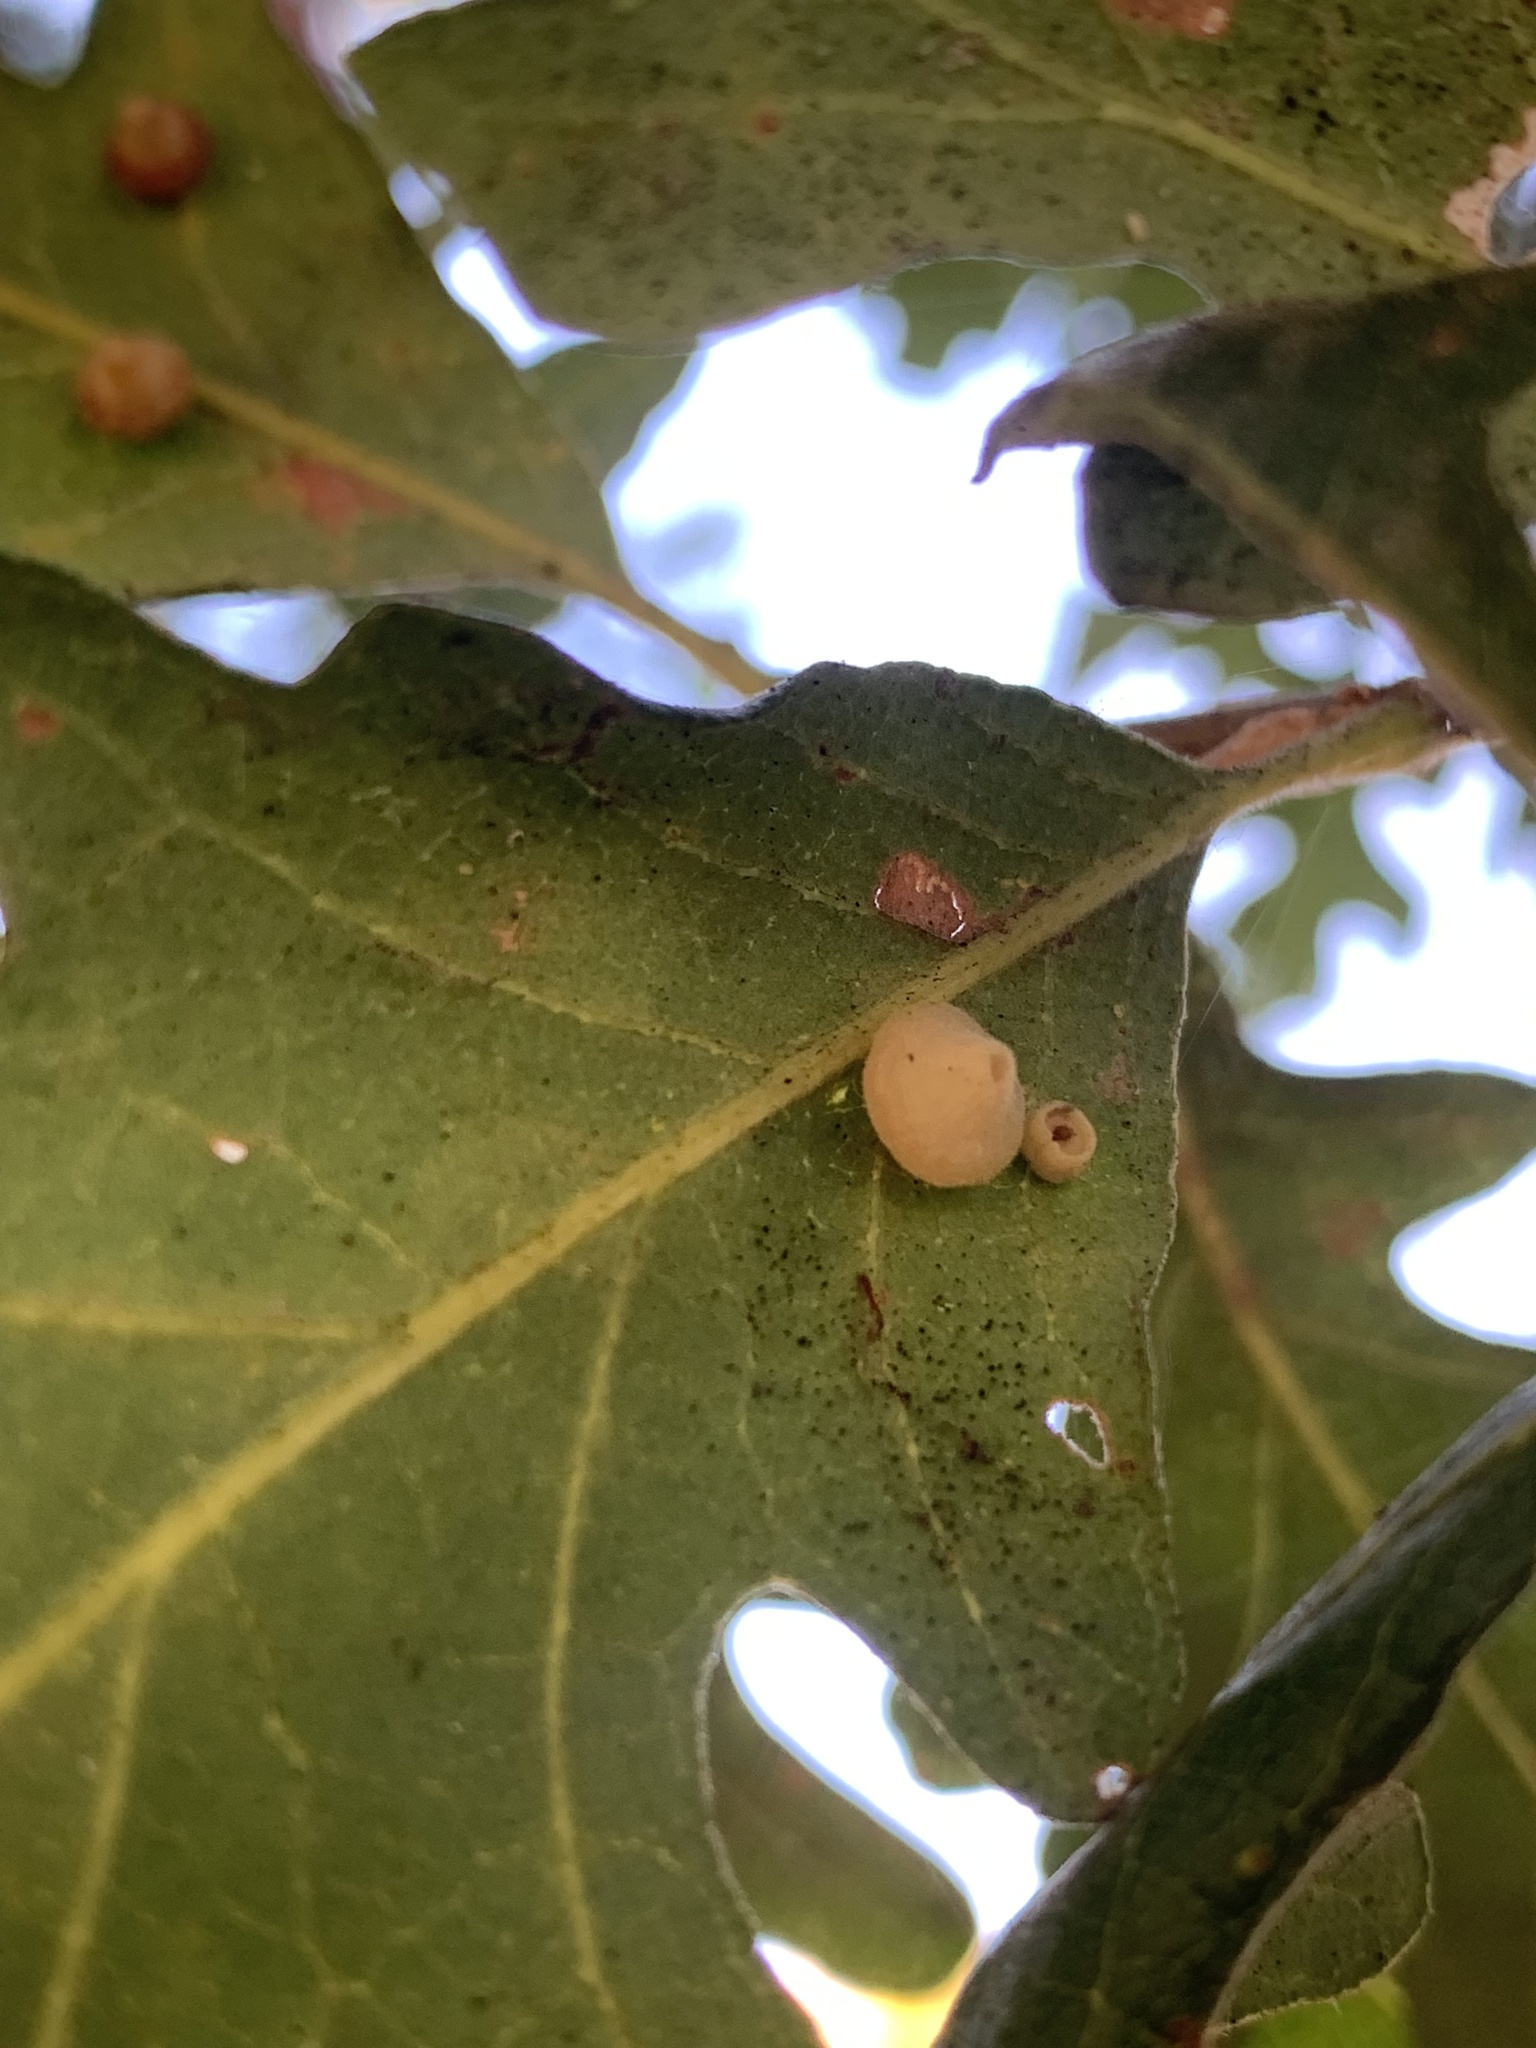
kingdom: Animalia
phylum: Arthropoda
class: Insecta
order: Hymenoptera
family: Cynipidae
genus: Andricus
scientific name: Andricus
